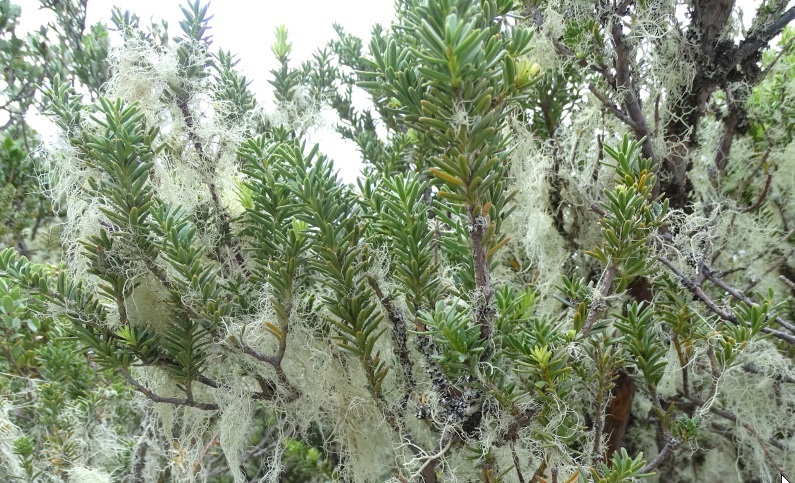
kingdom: Plantae
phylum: Tracheophyta
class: Pinopsida
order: Pinales
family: Podocarpaceae
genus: Podocarpus
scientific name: Podocarpus
